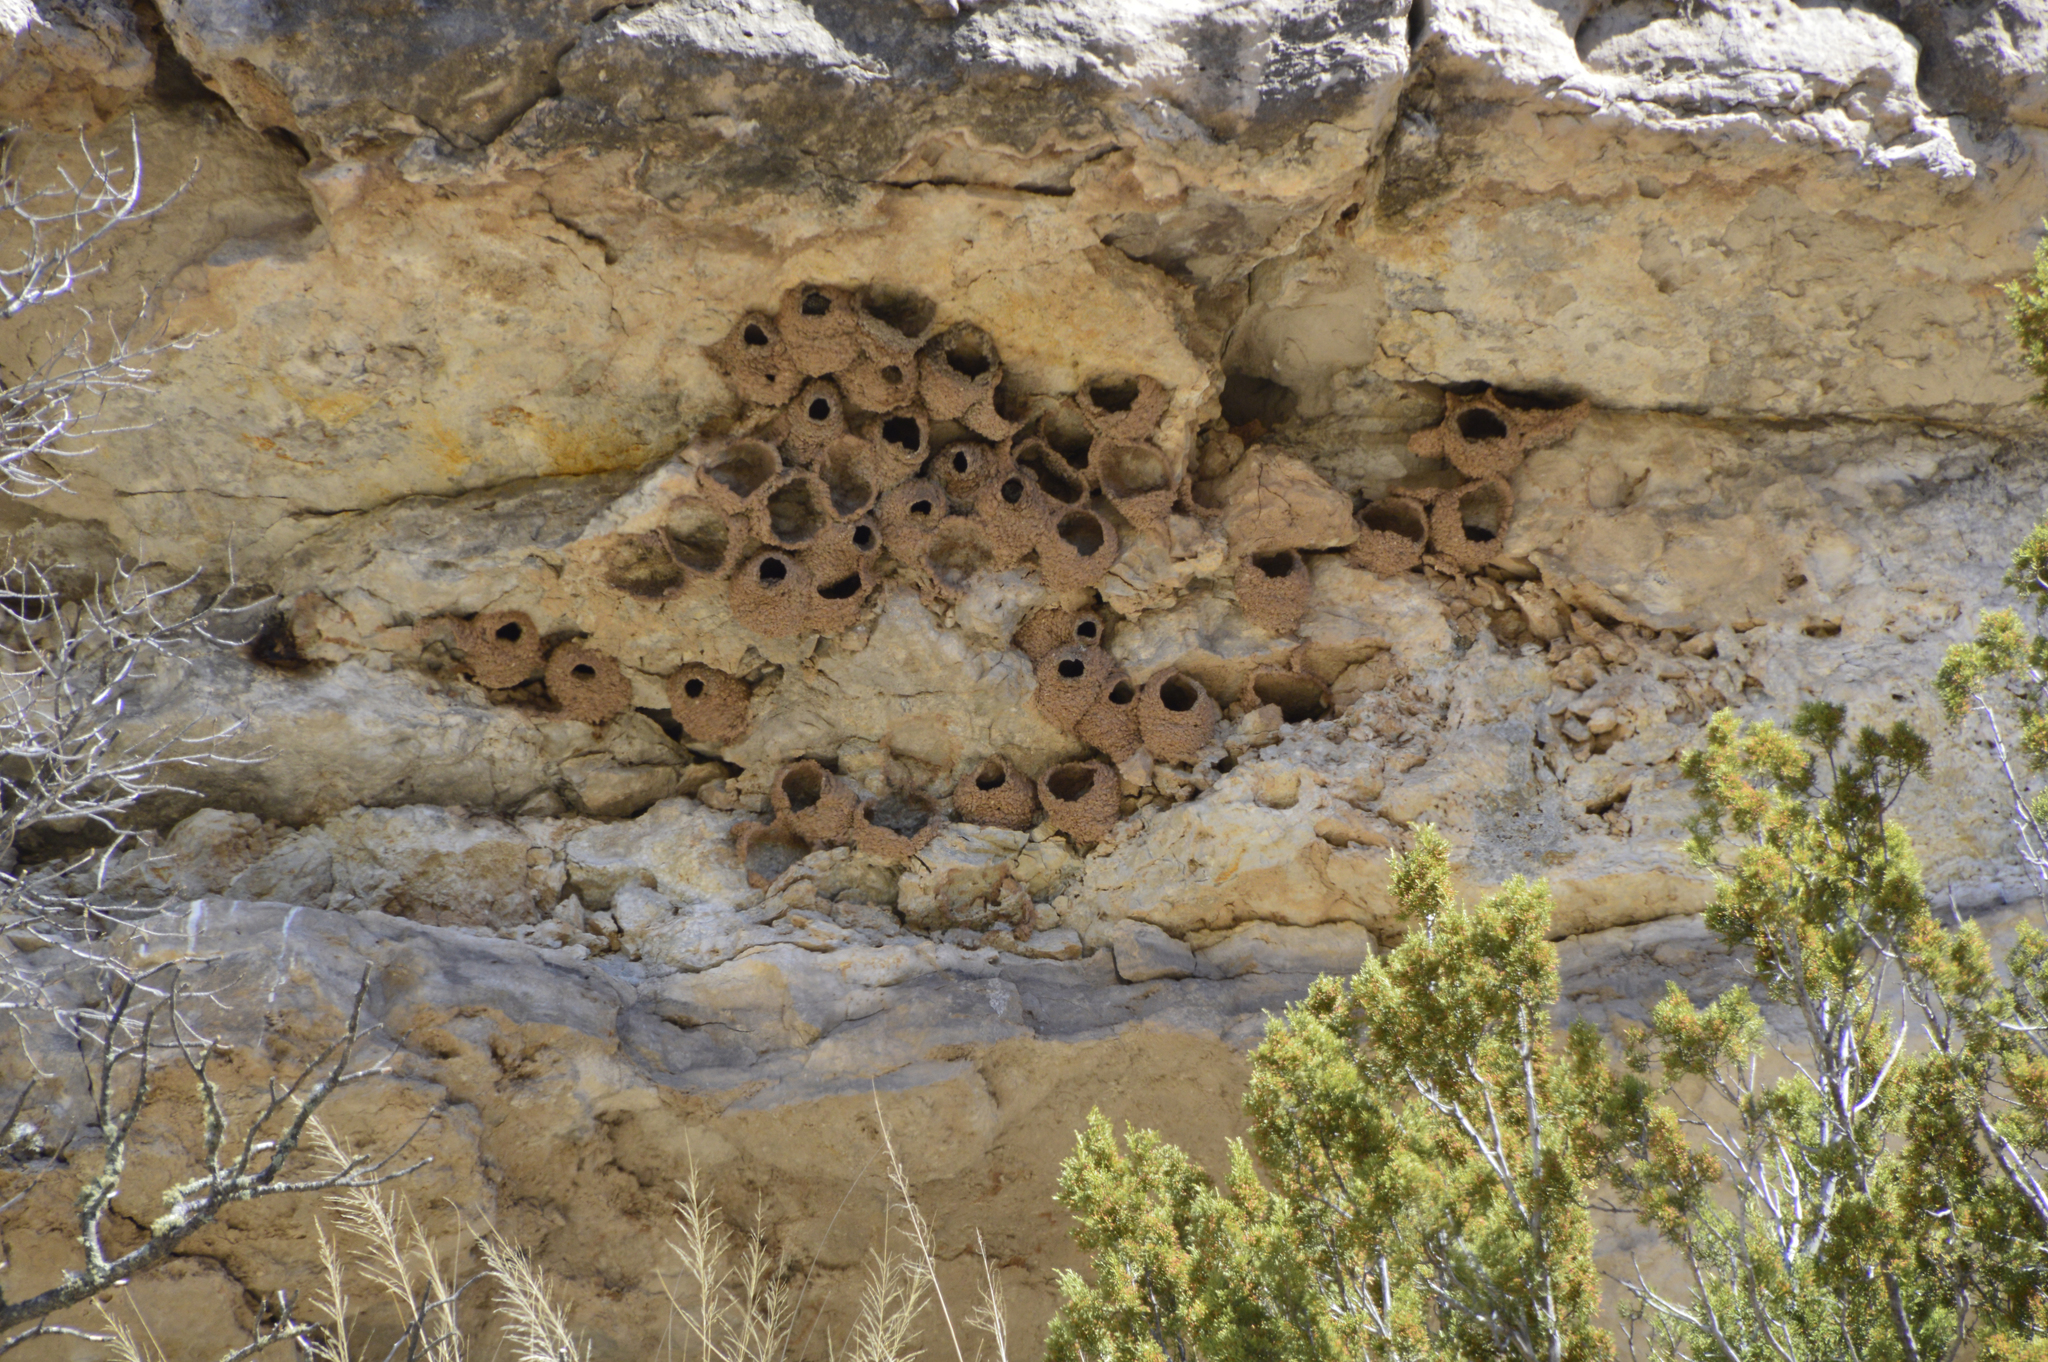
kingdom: Animalia
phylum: Chordata
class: Aves
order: Passeriformes
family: Hirundinidae
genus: Petrochelidon
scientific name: Petrochelidon pyrrhonota
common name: American cliff swallow
